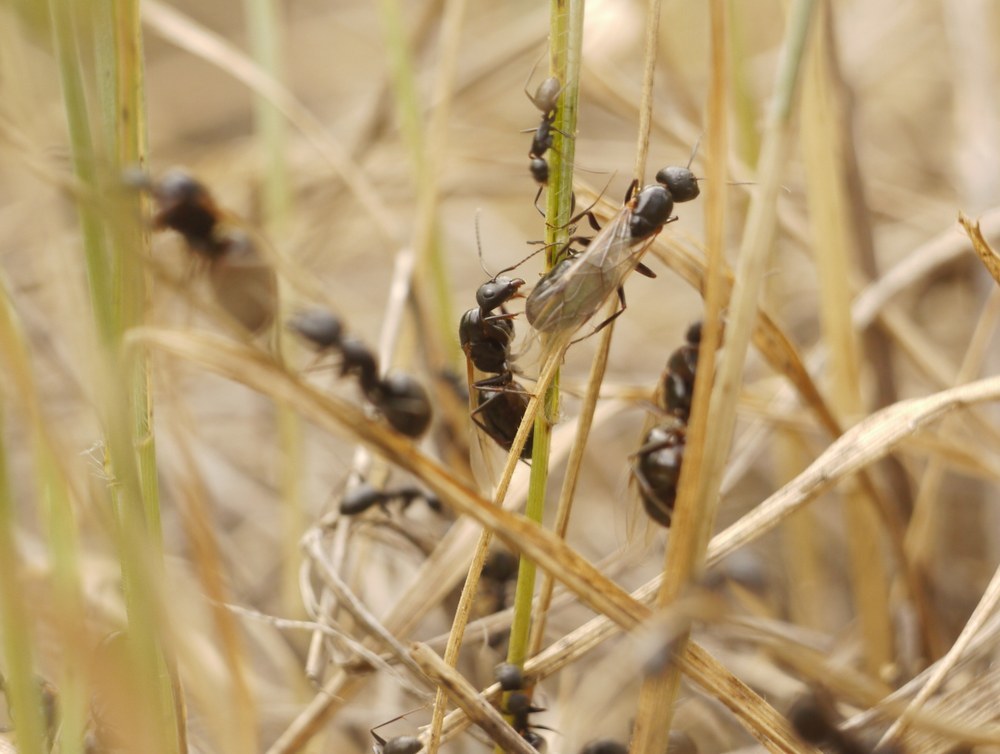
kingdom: Animalia
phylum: Arthropoda
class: Insecta
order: Hymenoptera
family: Formicidae
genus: Camponotus
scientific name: Camponotus aethiops
